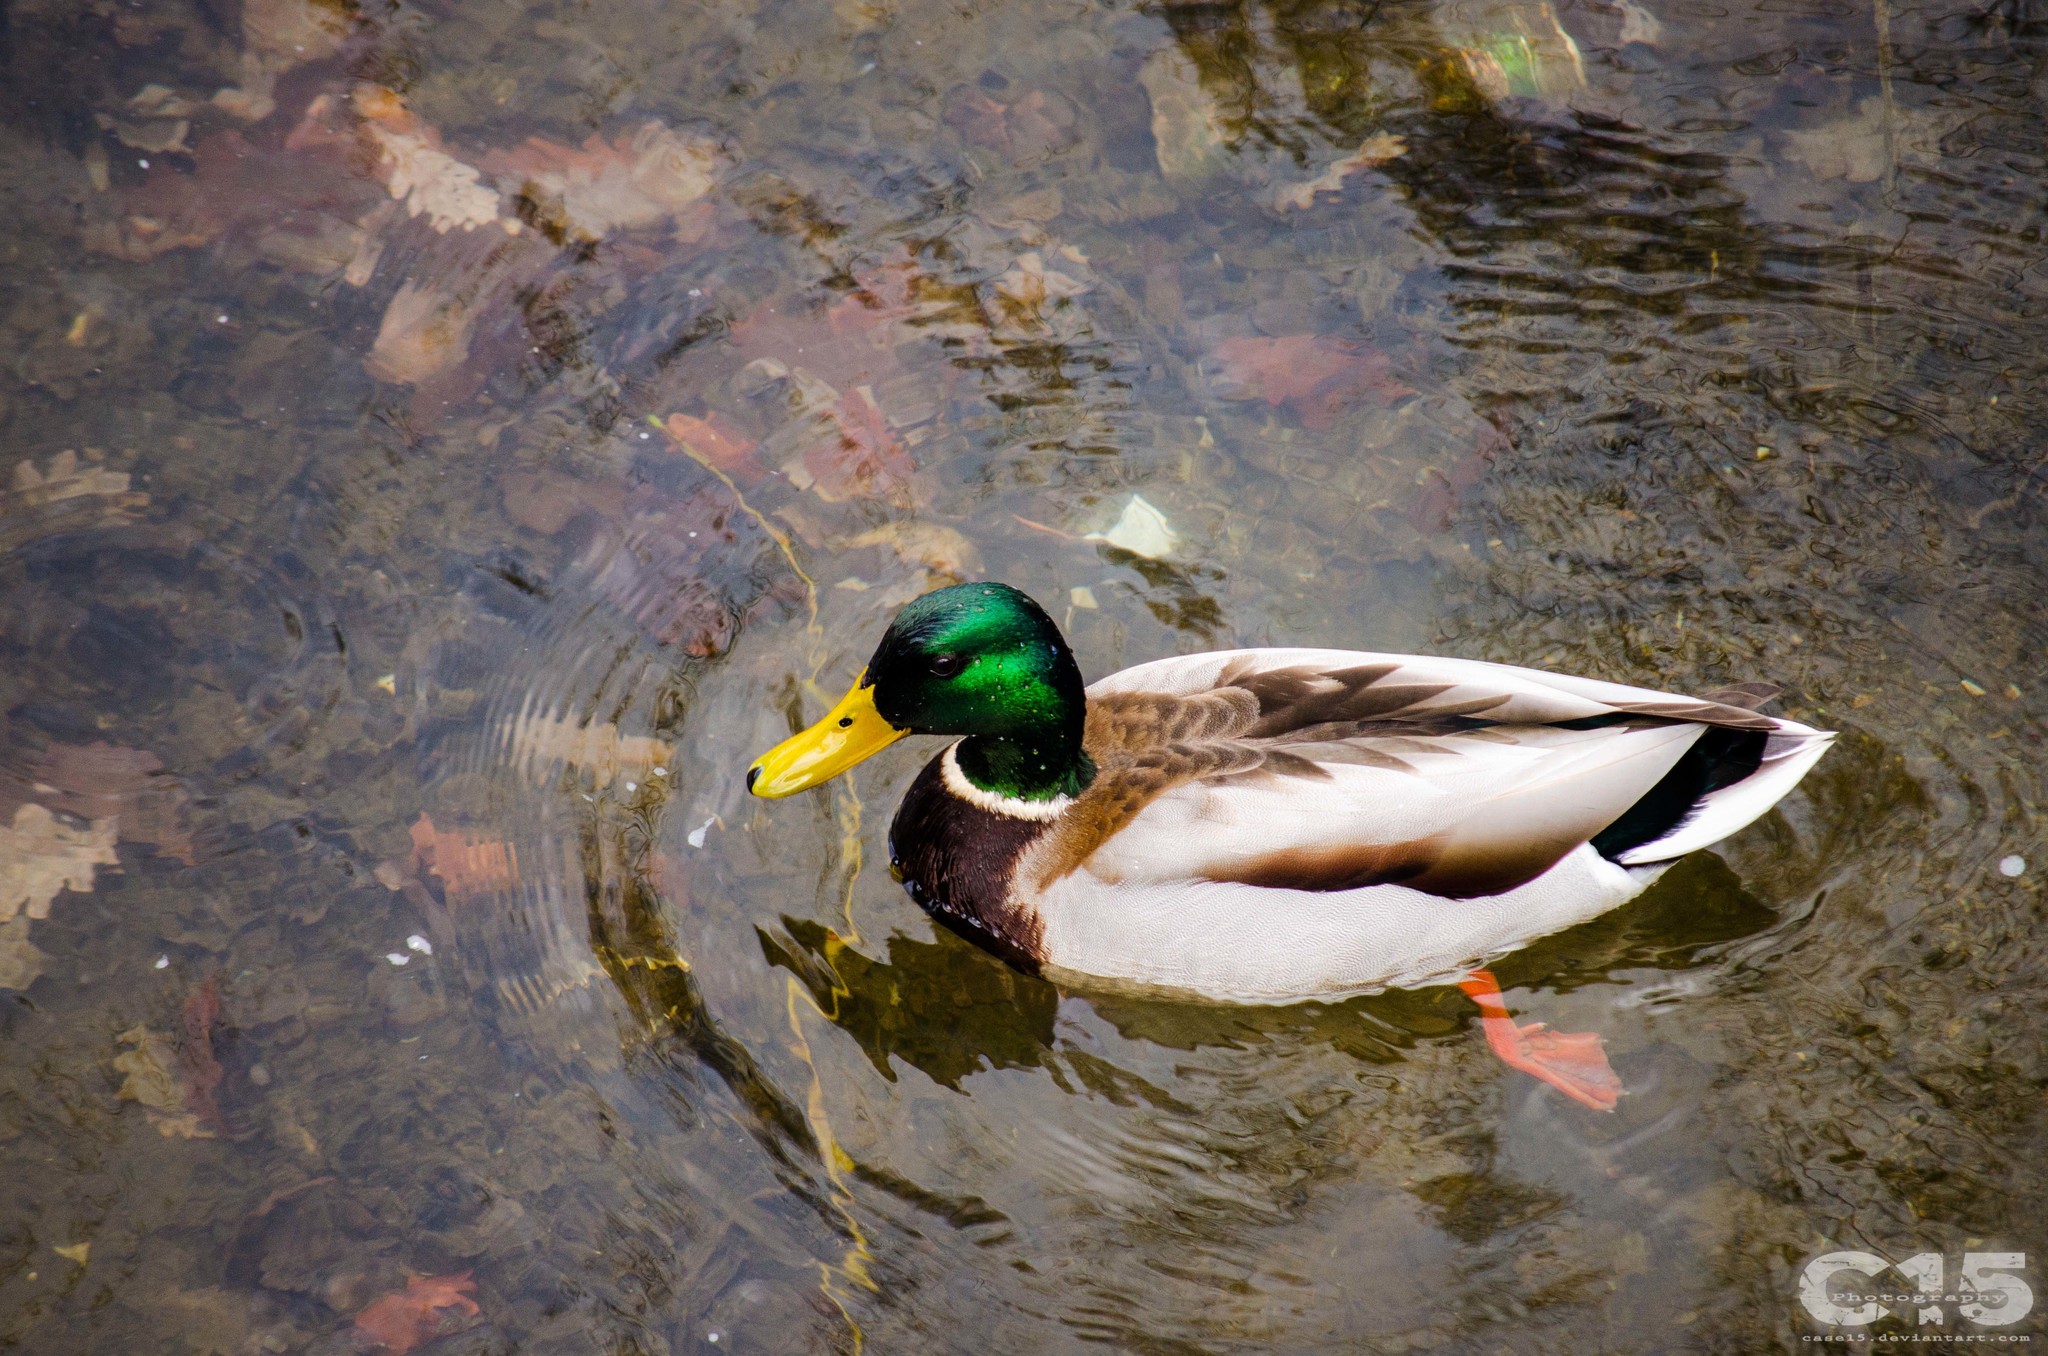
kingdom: Animalia
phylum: Chordata
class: Aves
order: Anseriformes
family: Anatidae
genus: Anas
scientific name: Anas platyrhynchos
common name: Mallard
